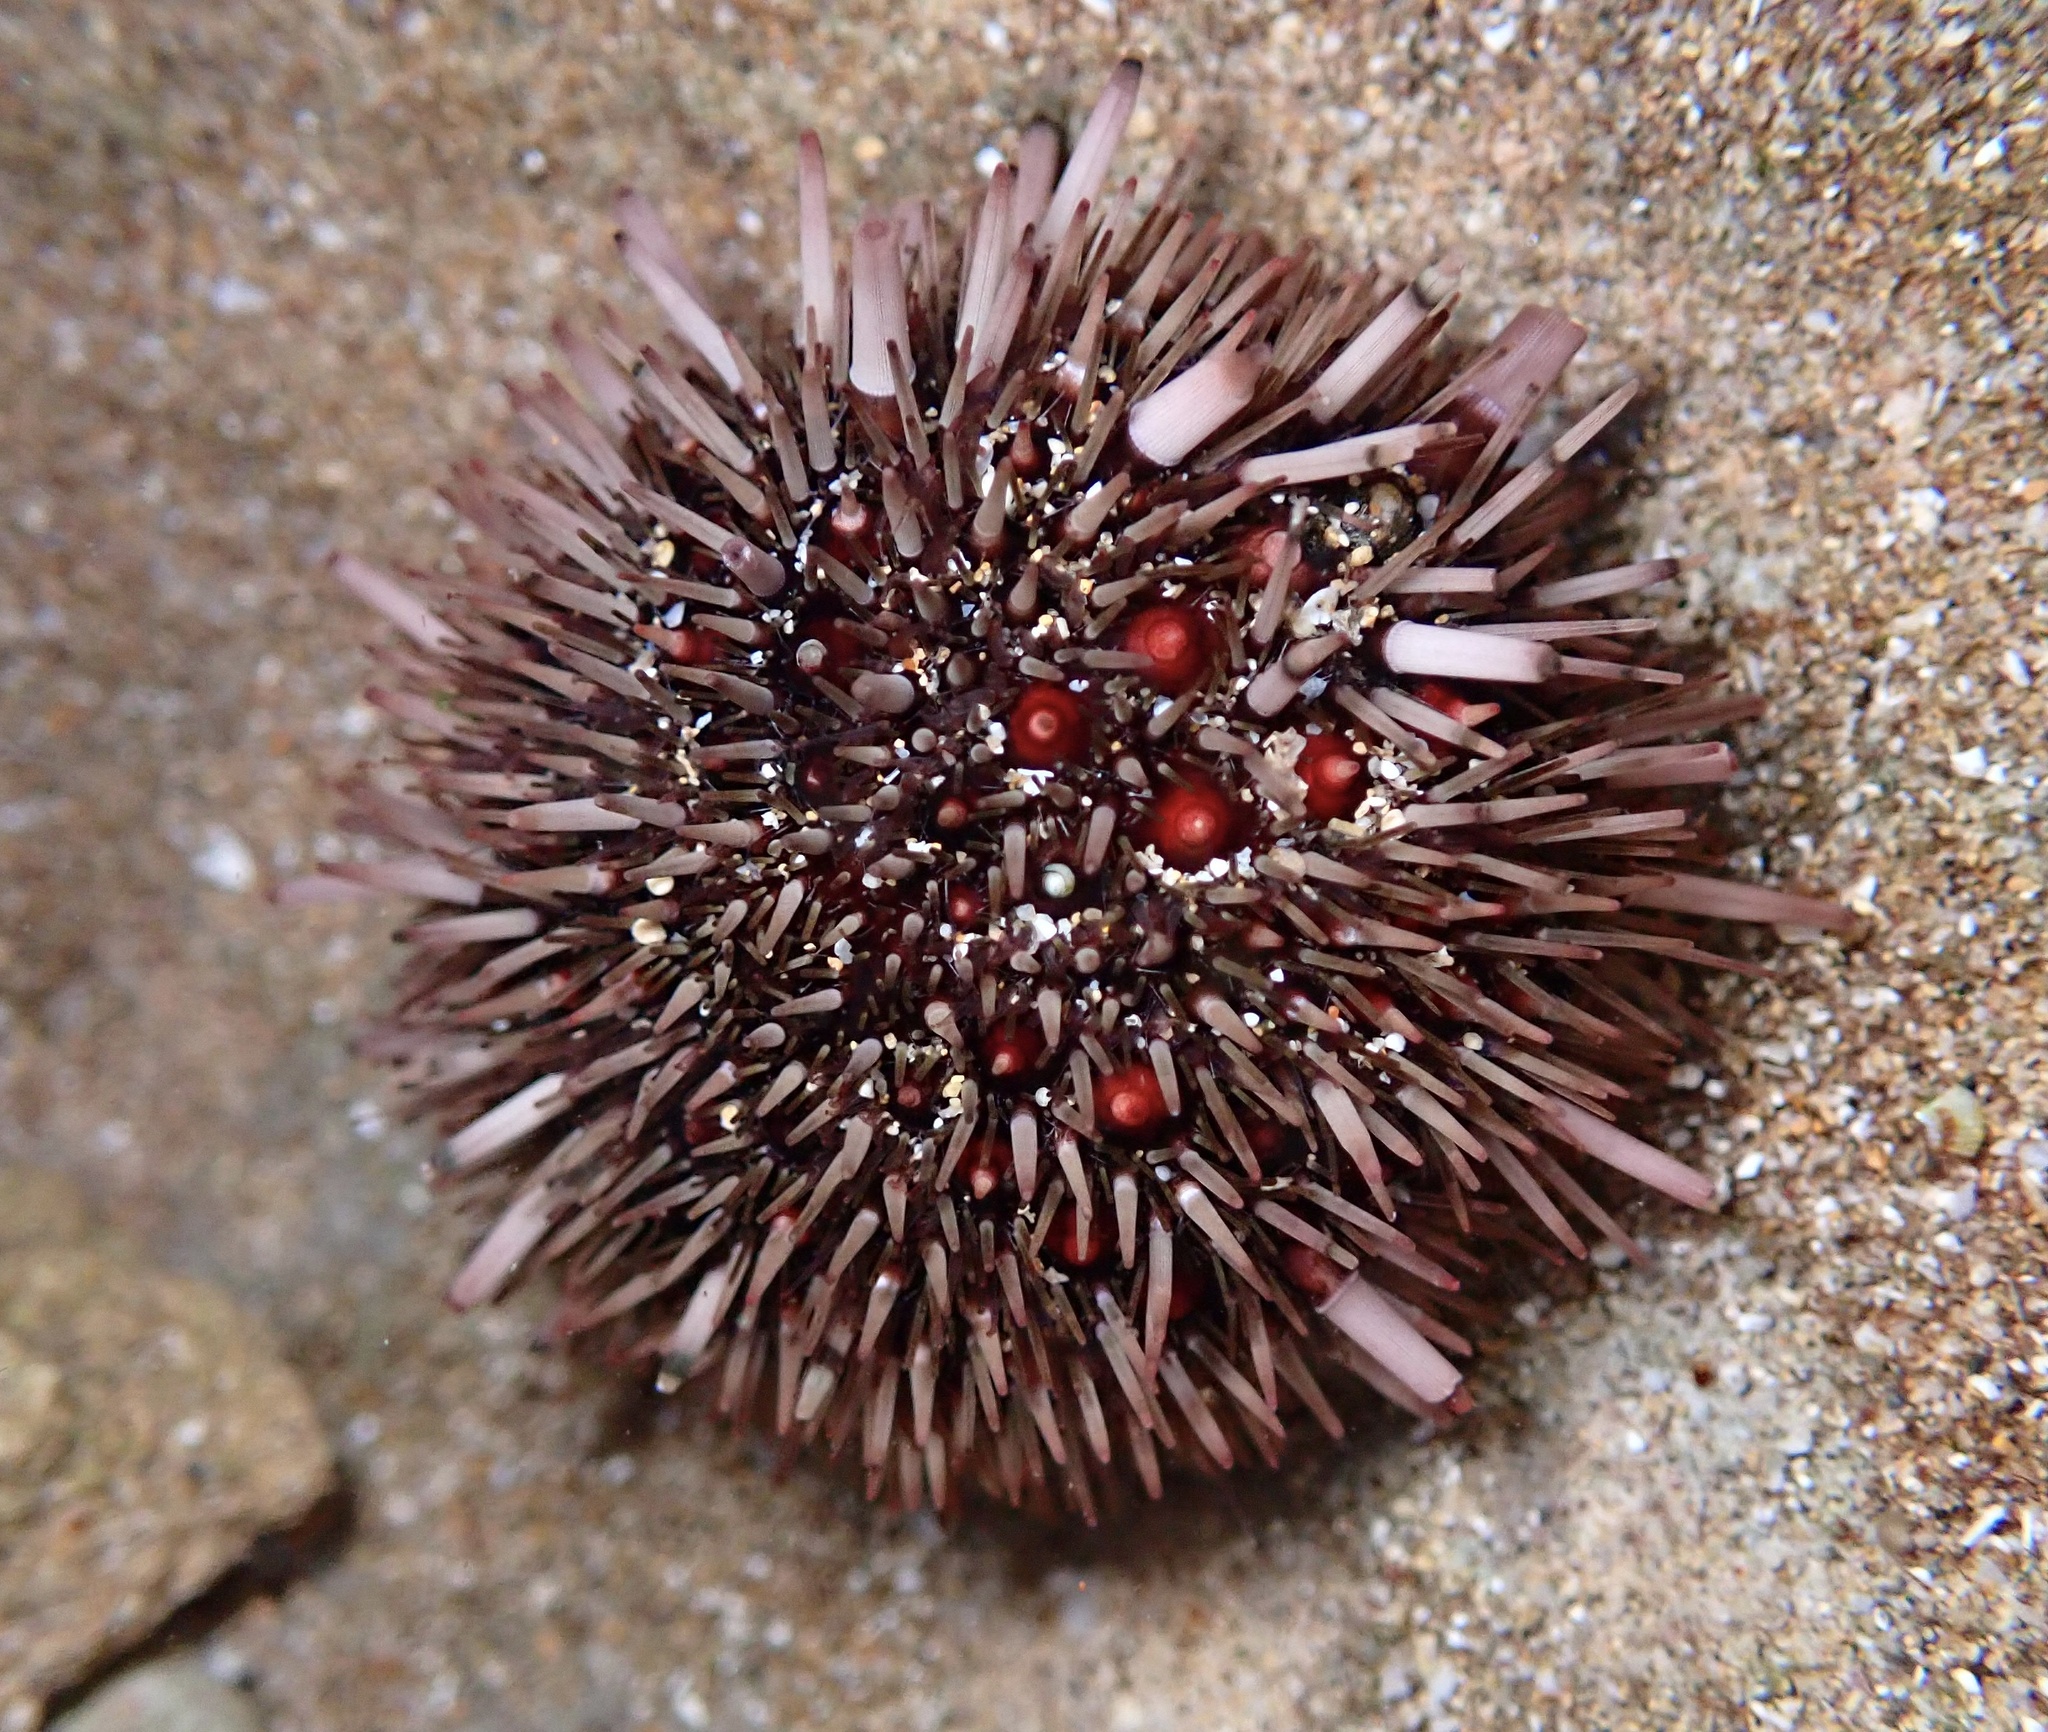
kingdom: Animalia
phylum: Echinodermata
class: Echinoidea
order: Camarodonta
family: Echinometridae
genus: Echinometra
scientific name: Echinometra mathaei
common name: Rock-boring urchin
